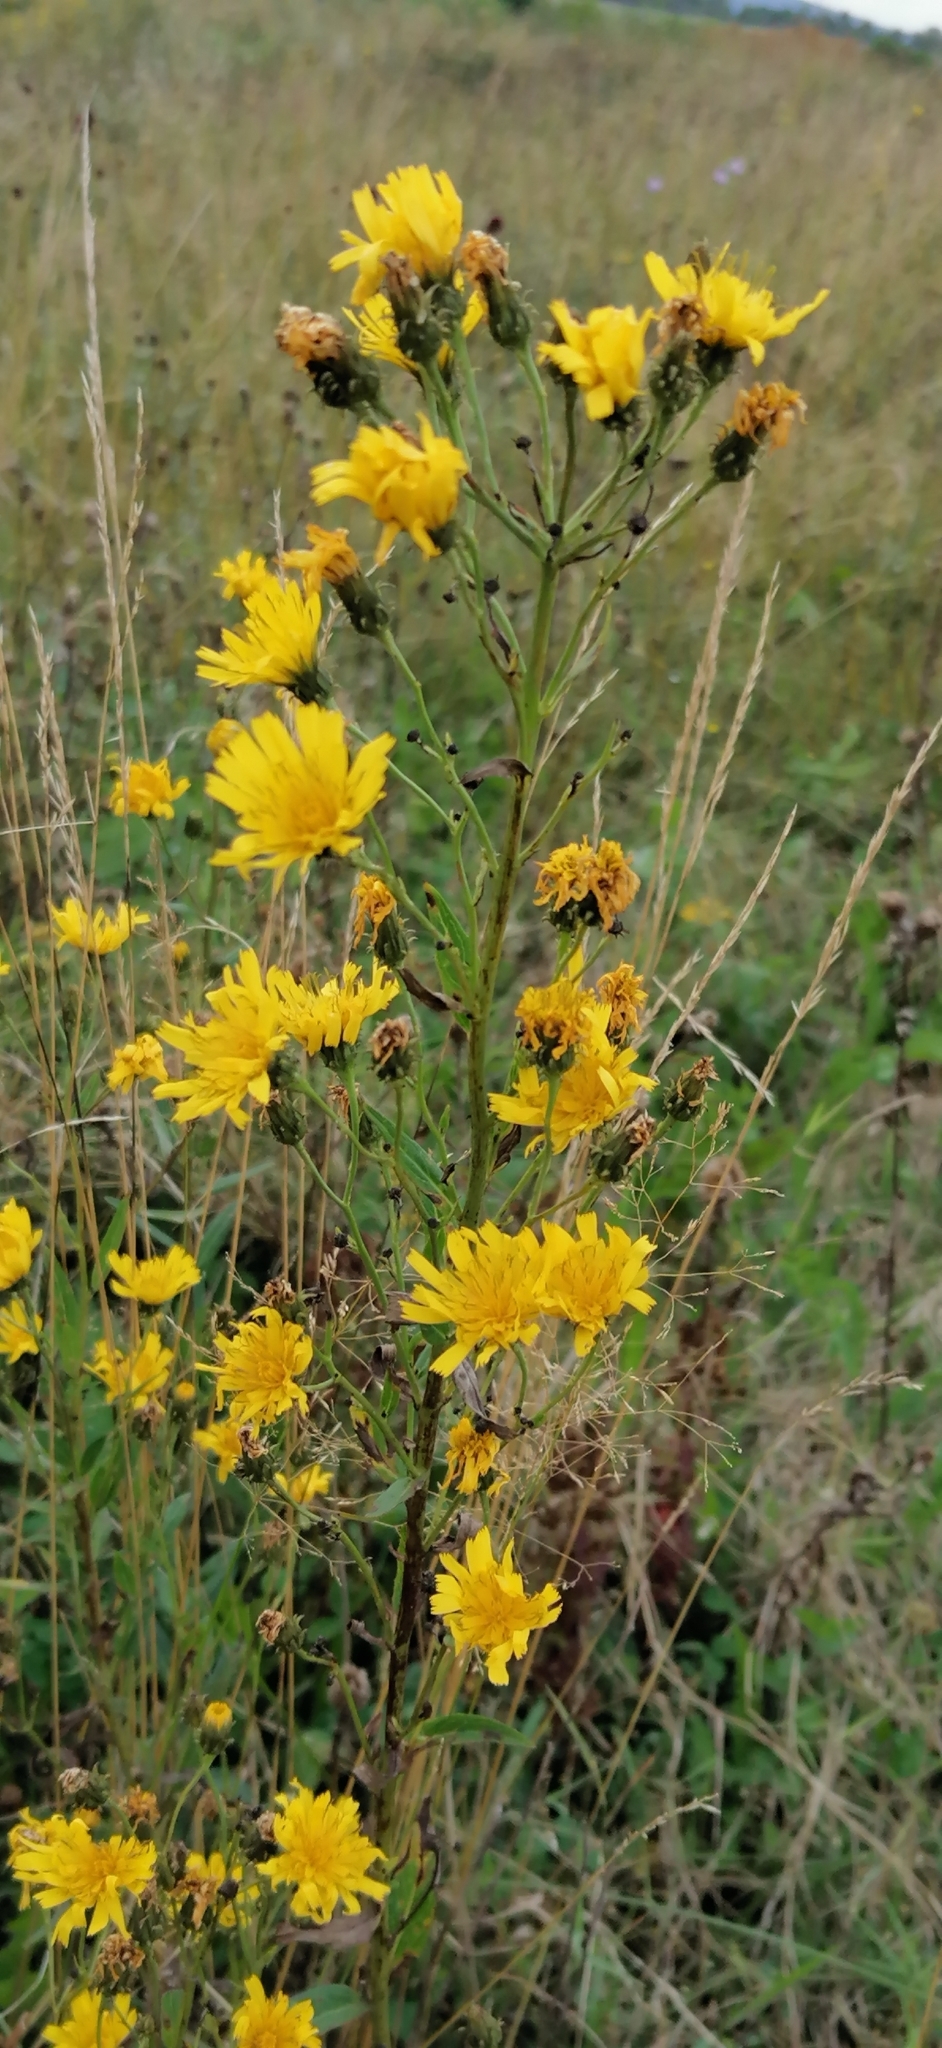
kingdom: Plantae
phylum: Tracheophyta
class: Magnoliopsida
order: Asterales
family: Asteraceae
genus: Hieracium
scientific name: Hieracium umbellatum
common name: Northern hawkweed
